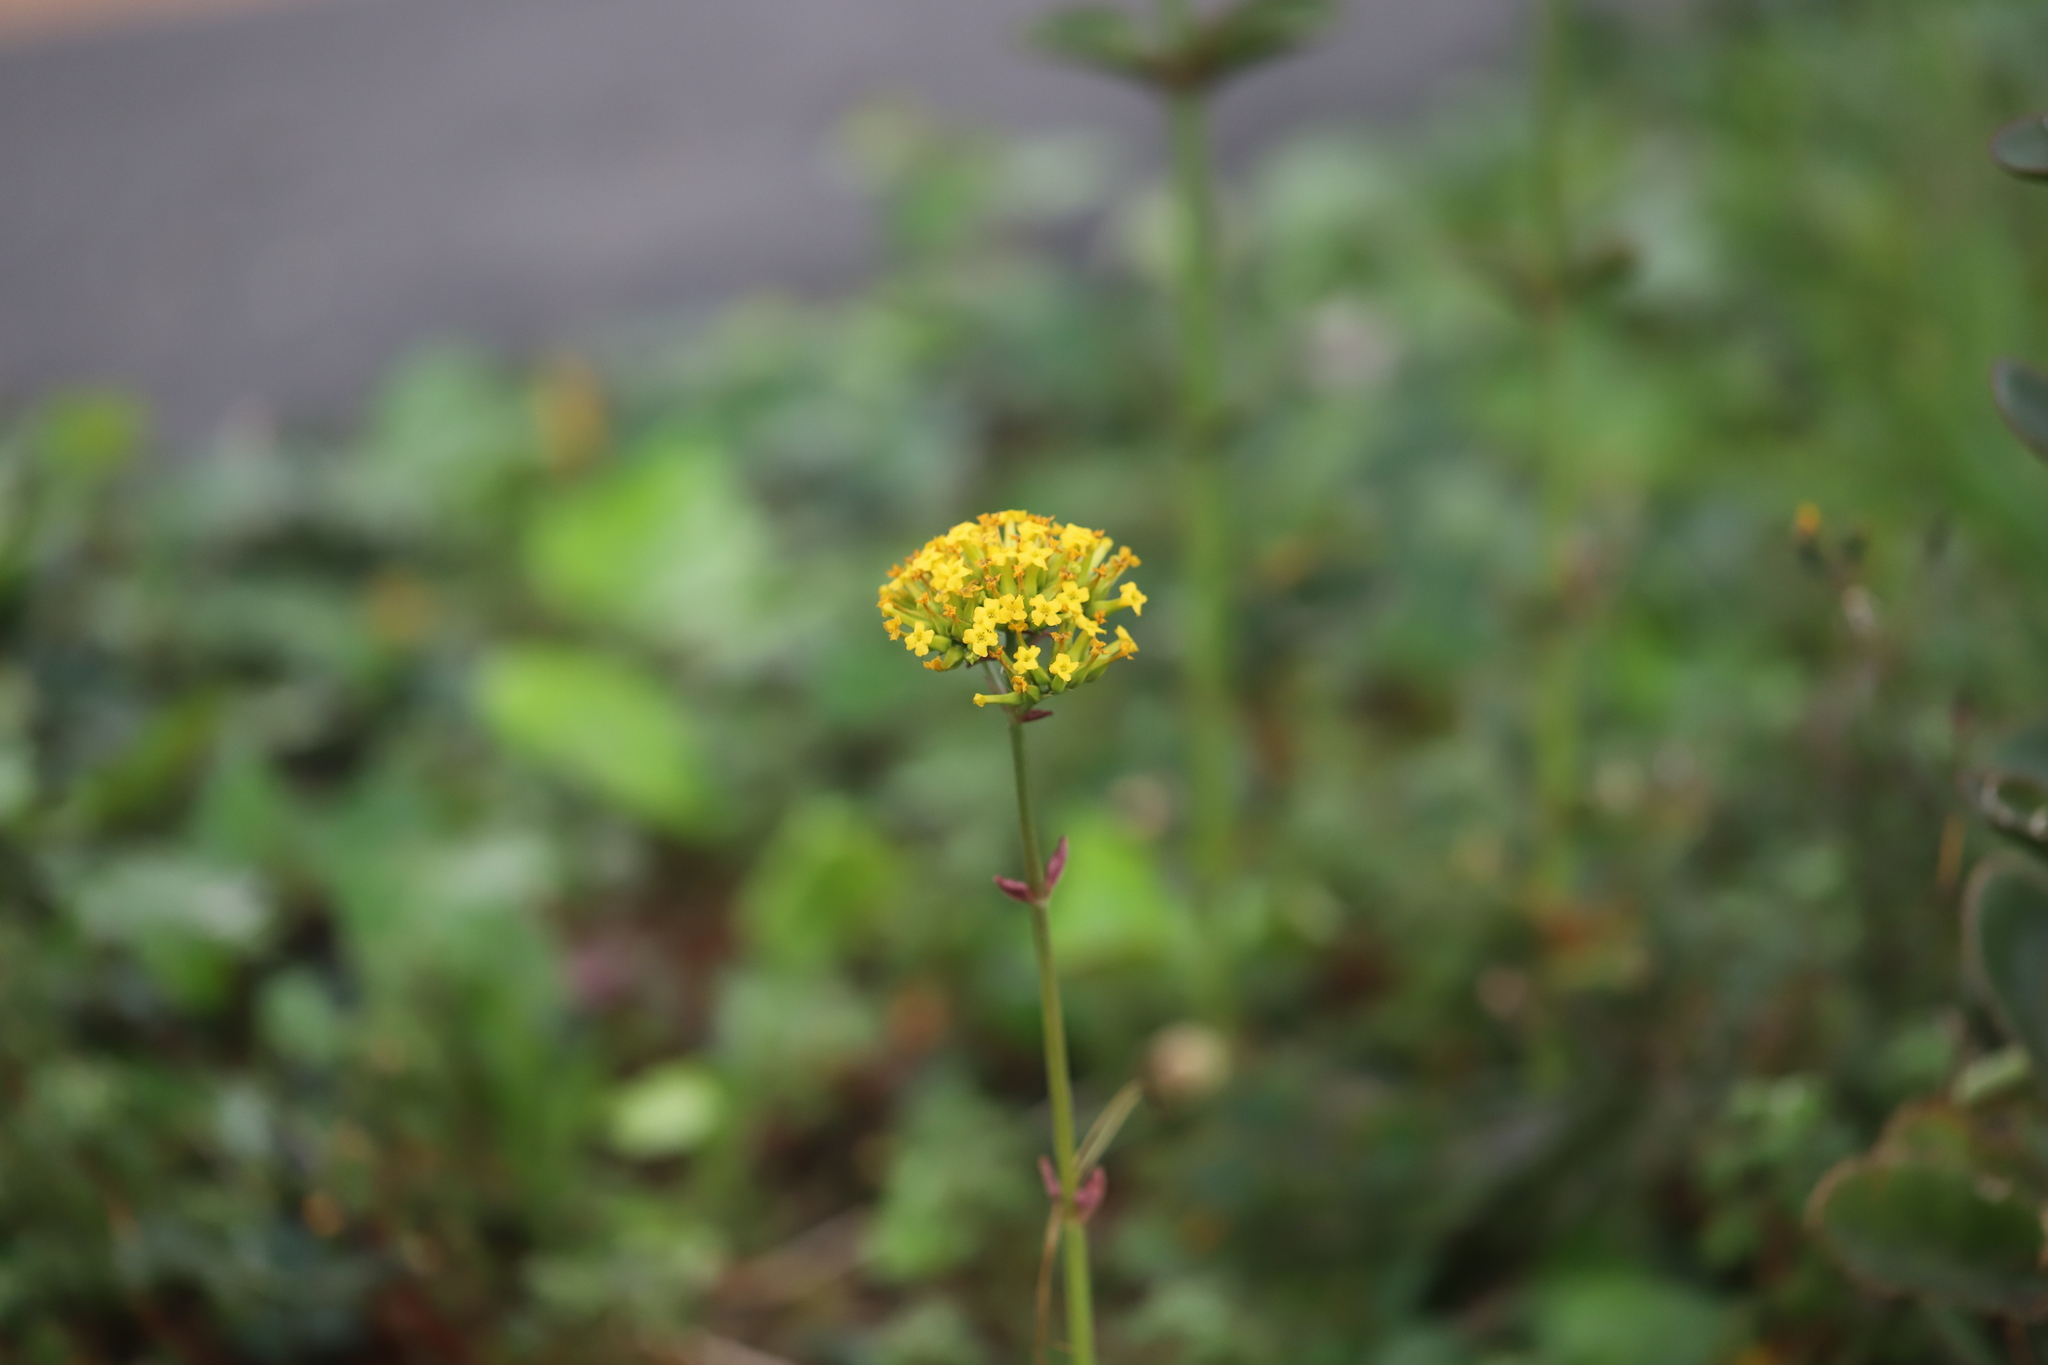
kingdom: Plantae
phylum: Tracheophyta
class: Magnoliopsida
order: Saxifragales
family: Crassulaceae
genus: Kalanchoe
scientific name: Kalanchoe densiflora
